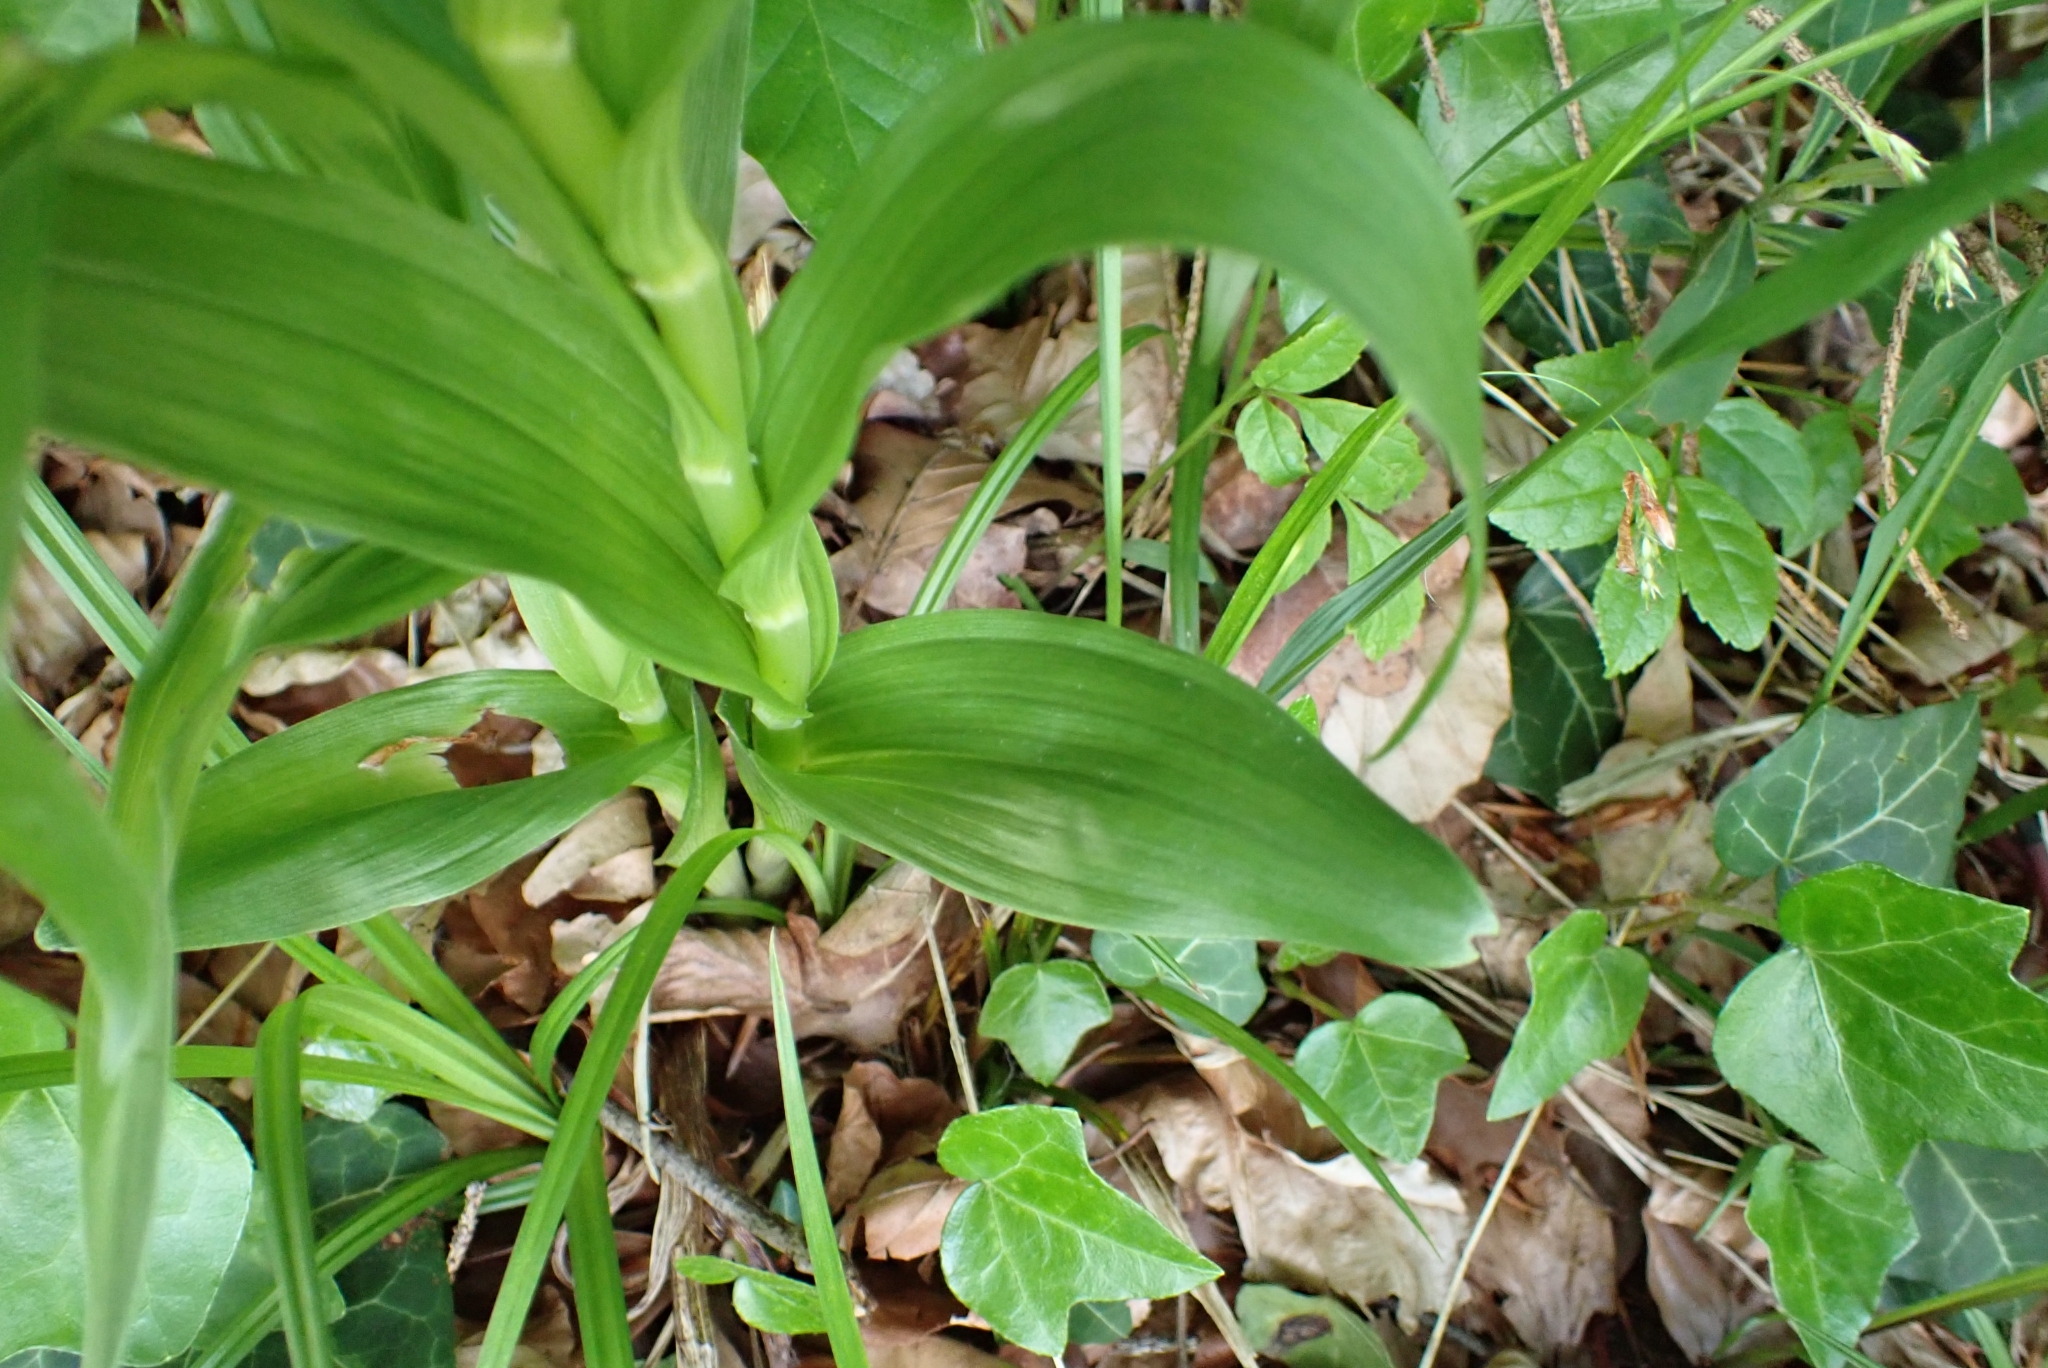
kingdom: Plantae
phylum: Tracheophyta
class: Liliopsida
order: Asparagales
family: Orchidaceae
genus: Cephalanthera
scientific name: Cephalanthera longifolia
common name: Narrow-leaved helleborine
